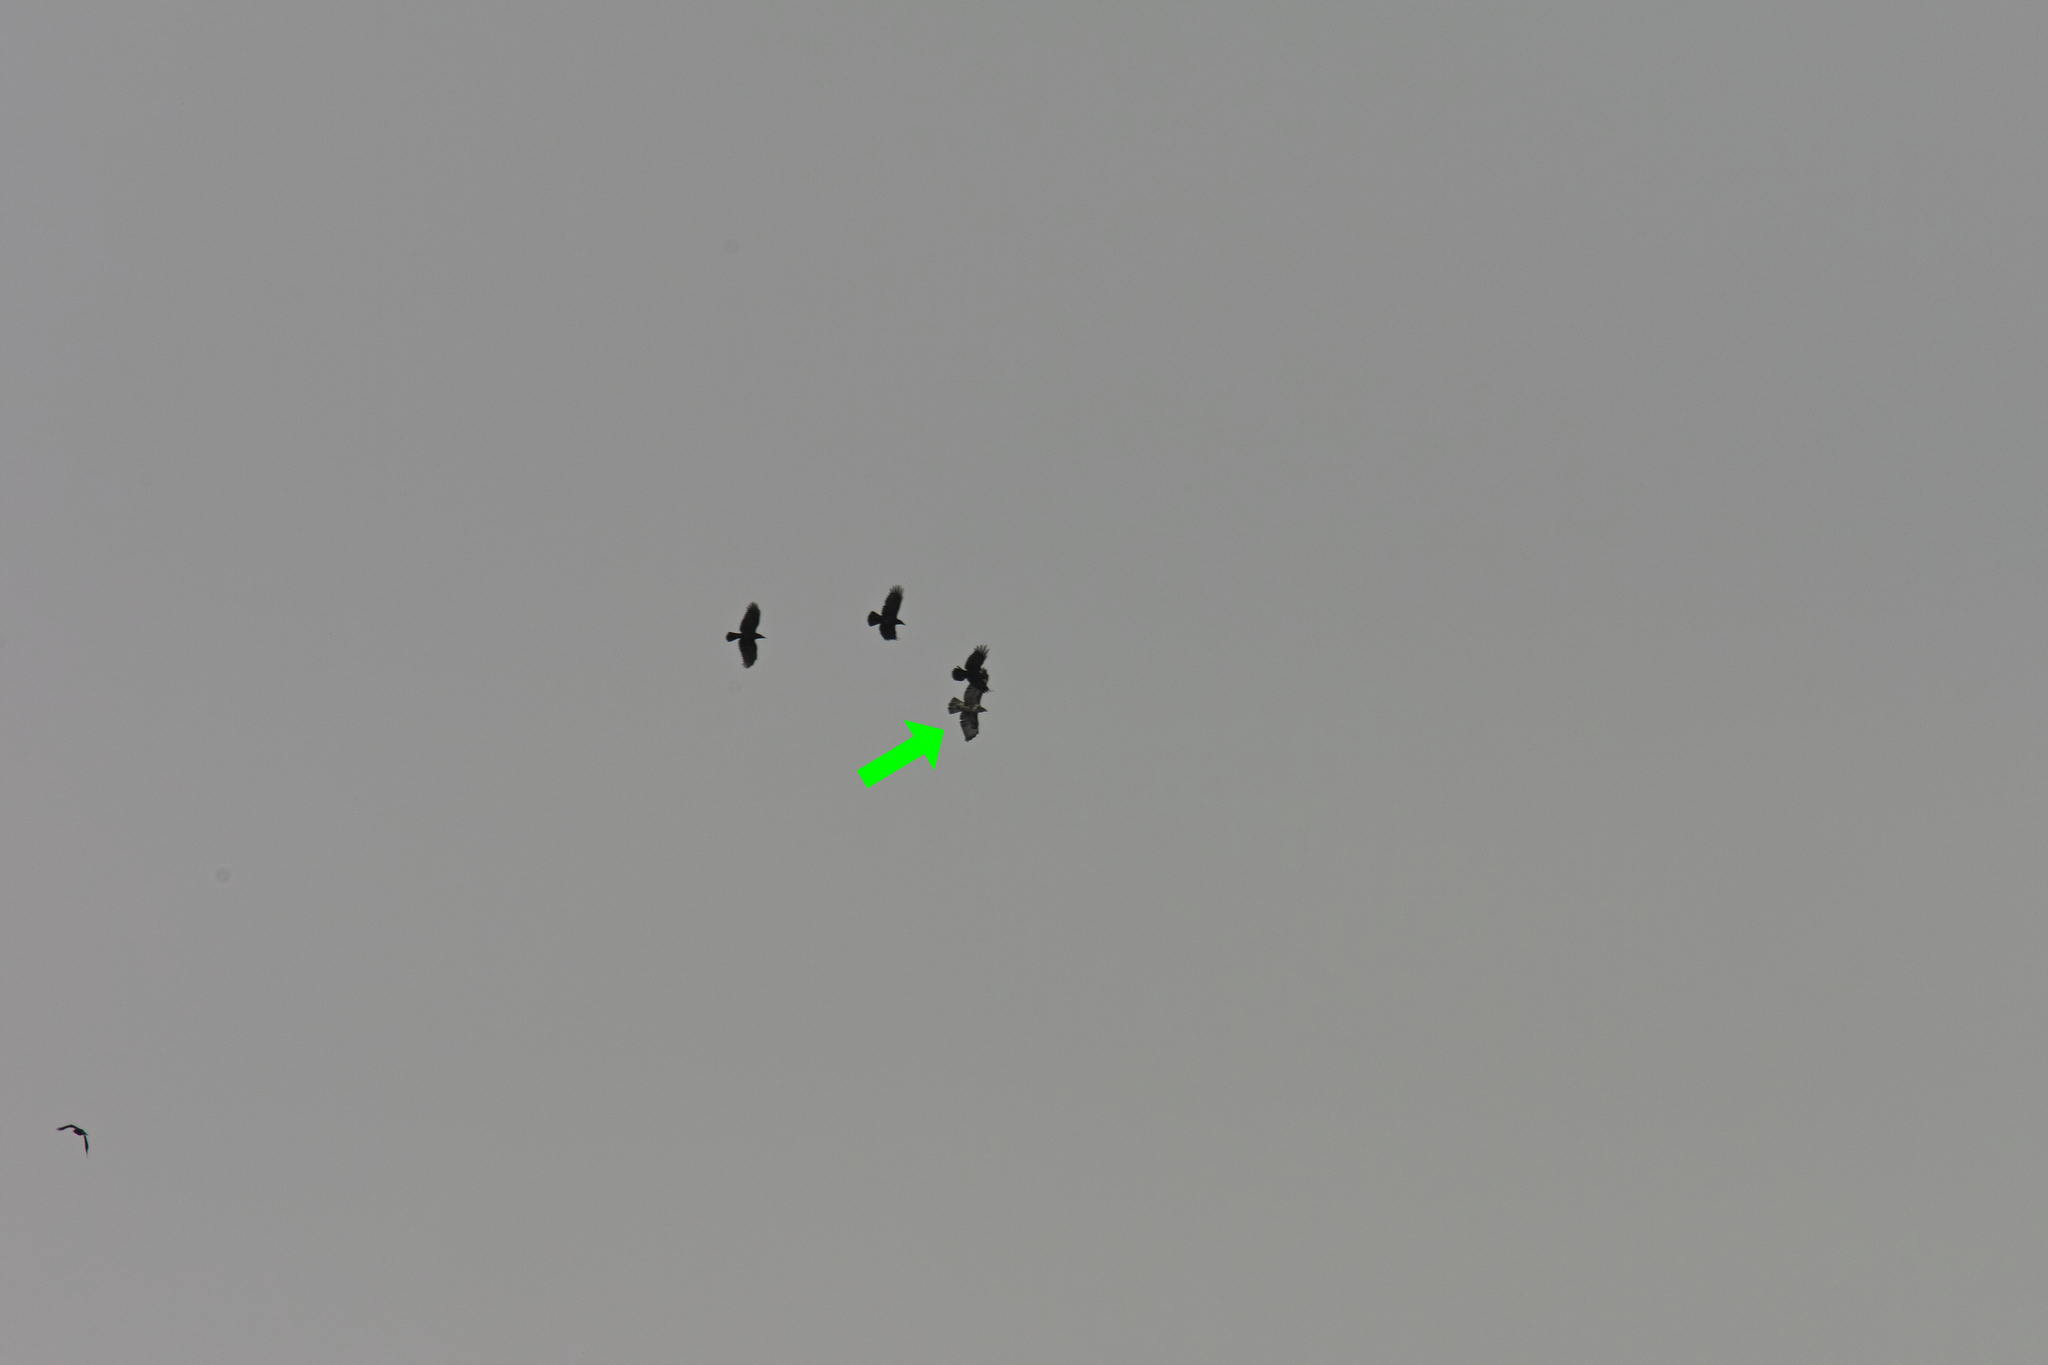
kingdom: Animalia
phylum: Chordata
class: Aves
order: Passeriformes
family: Corvidae
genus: Corvus
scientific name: Corvus corone
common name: Carrion crow
